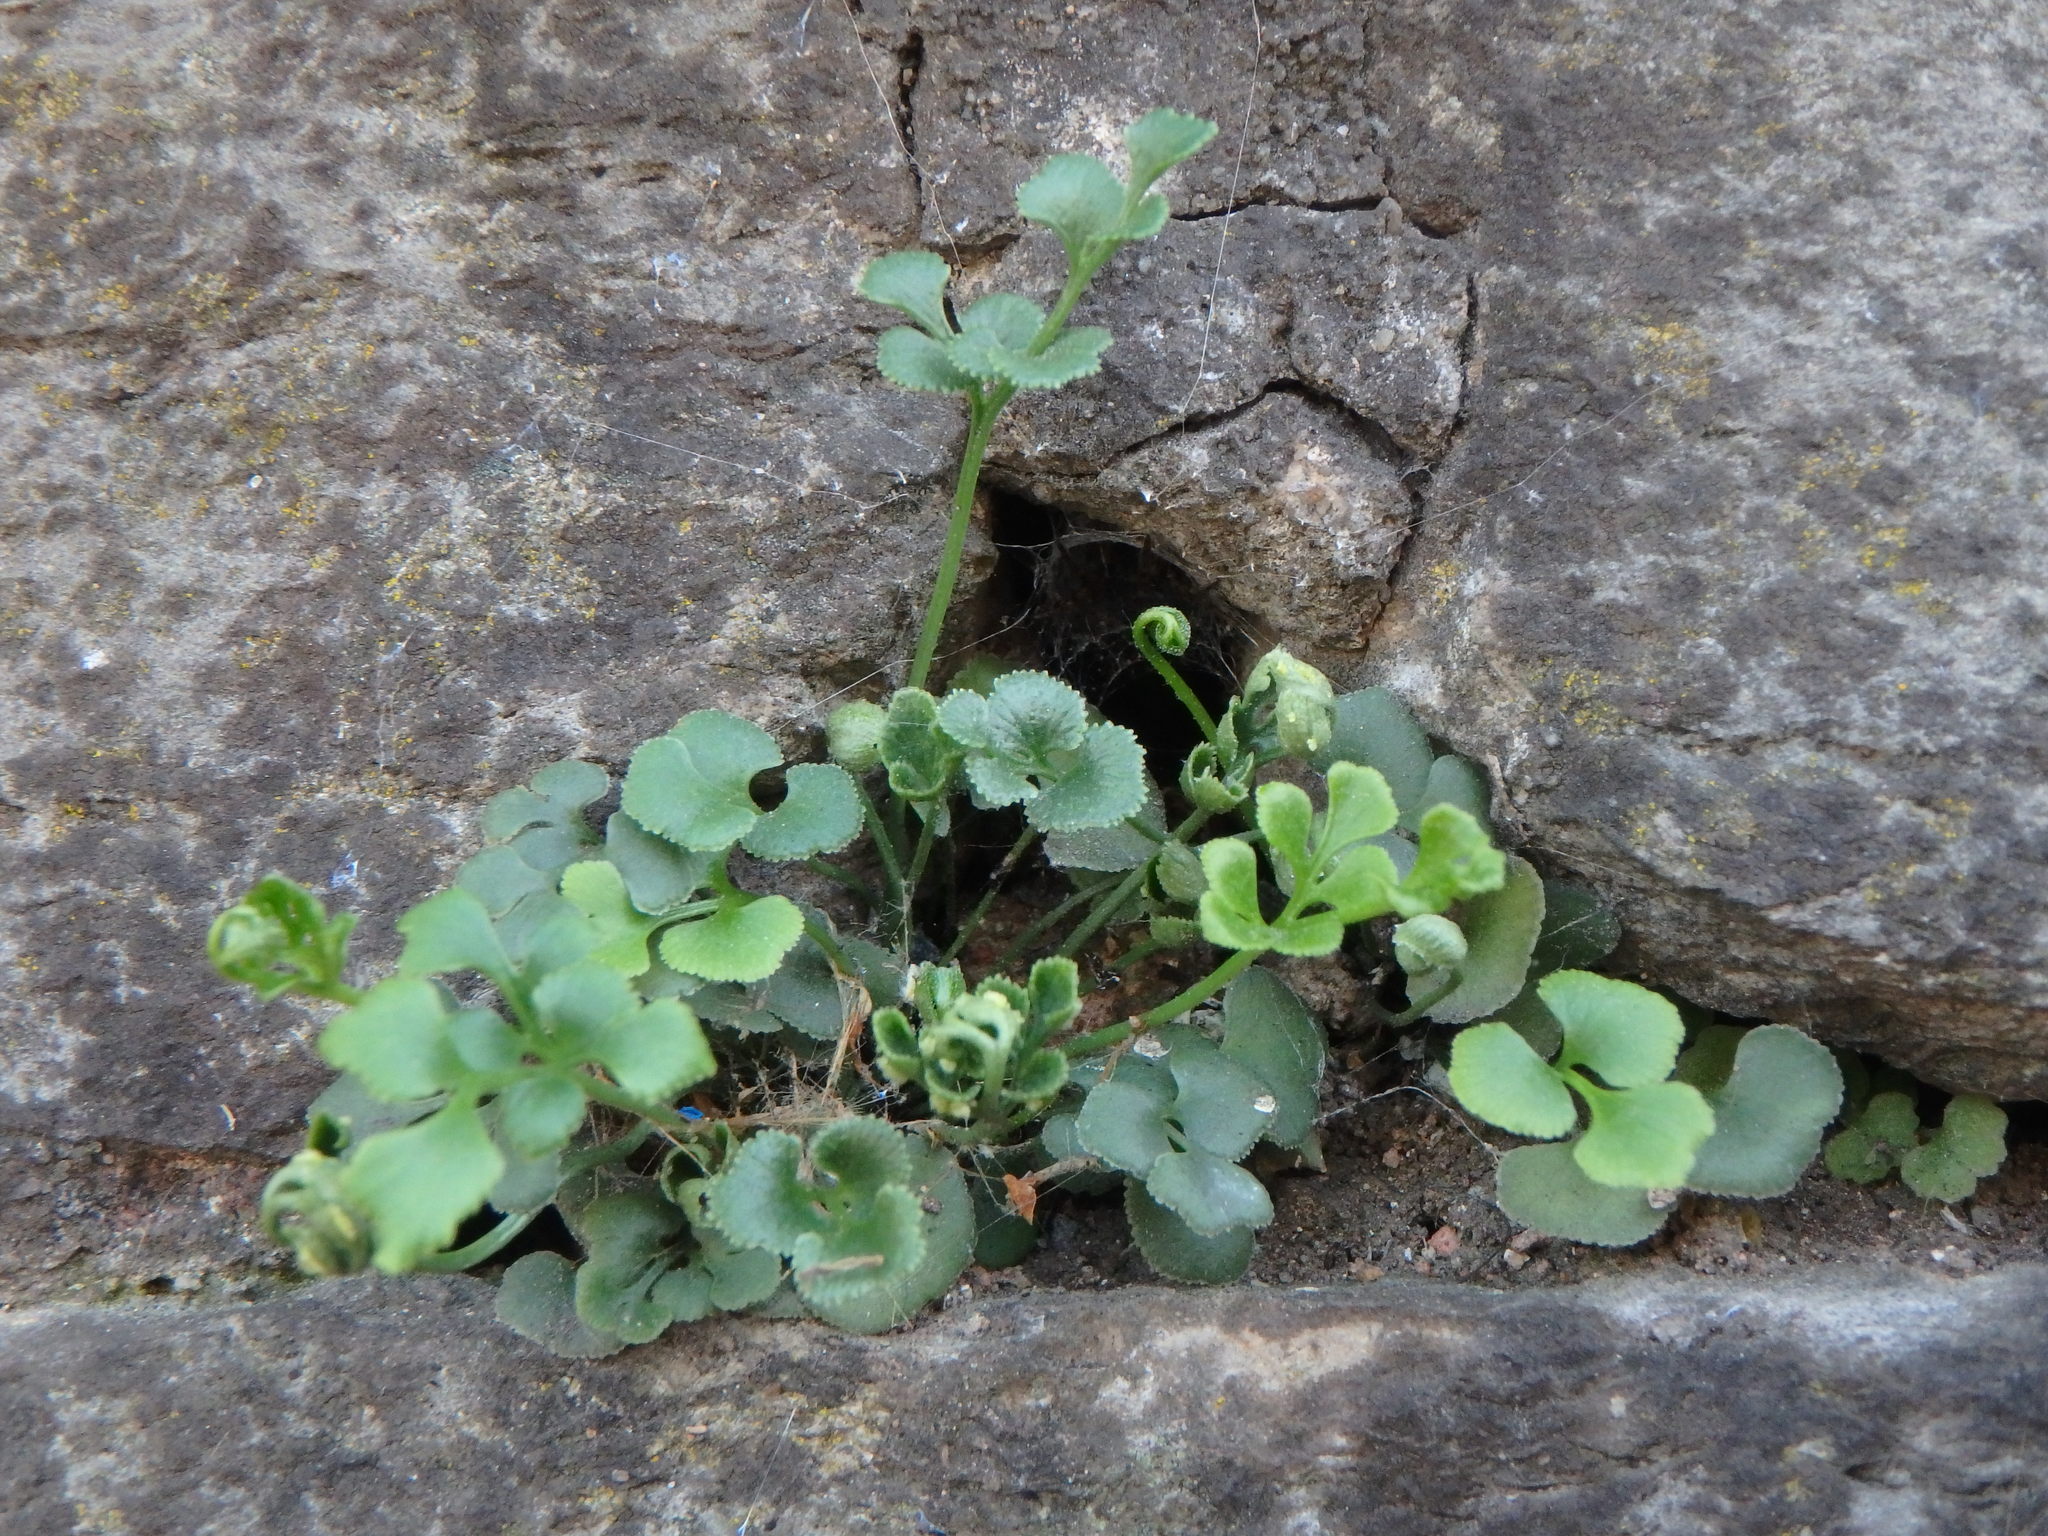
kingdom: Plantae
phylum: Tracheophyta
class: Polypodiopsida
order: Polypodiales
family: Aspleniaceae
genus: Asplenium
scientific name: Asplenium ruta-muraria
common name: Wall-rue
